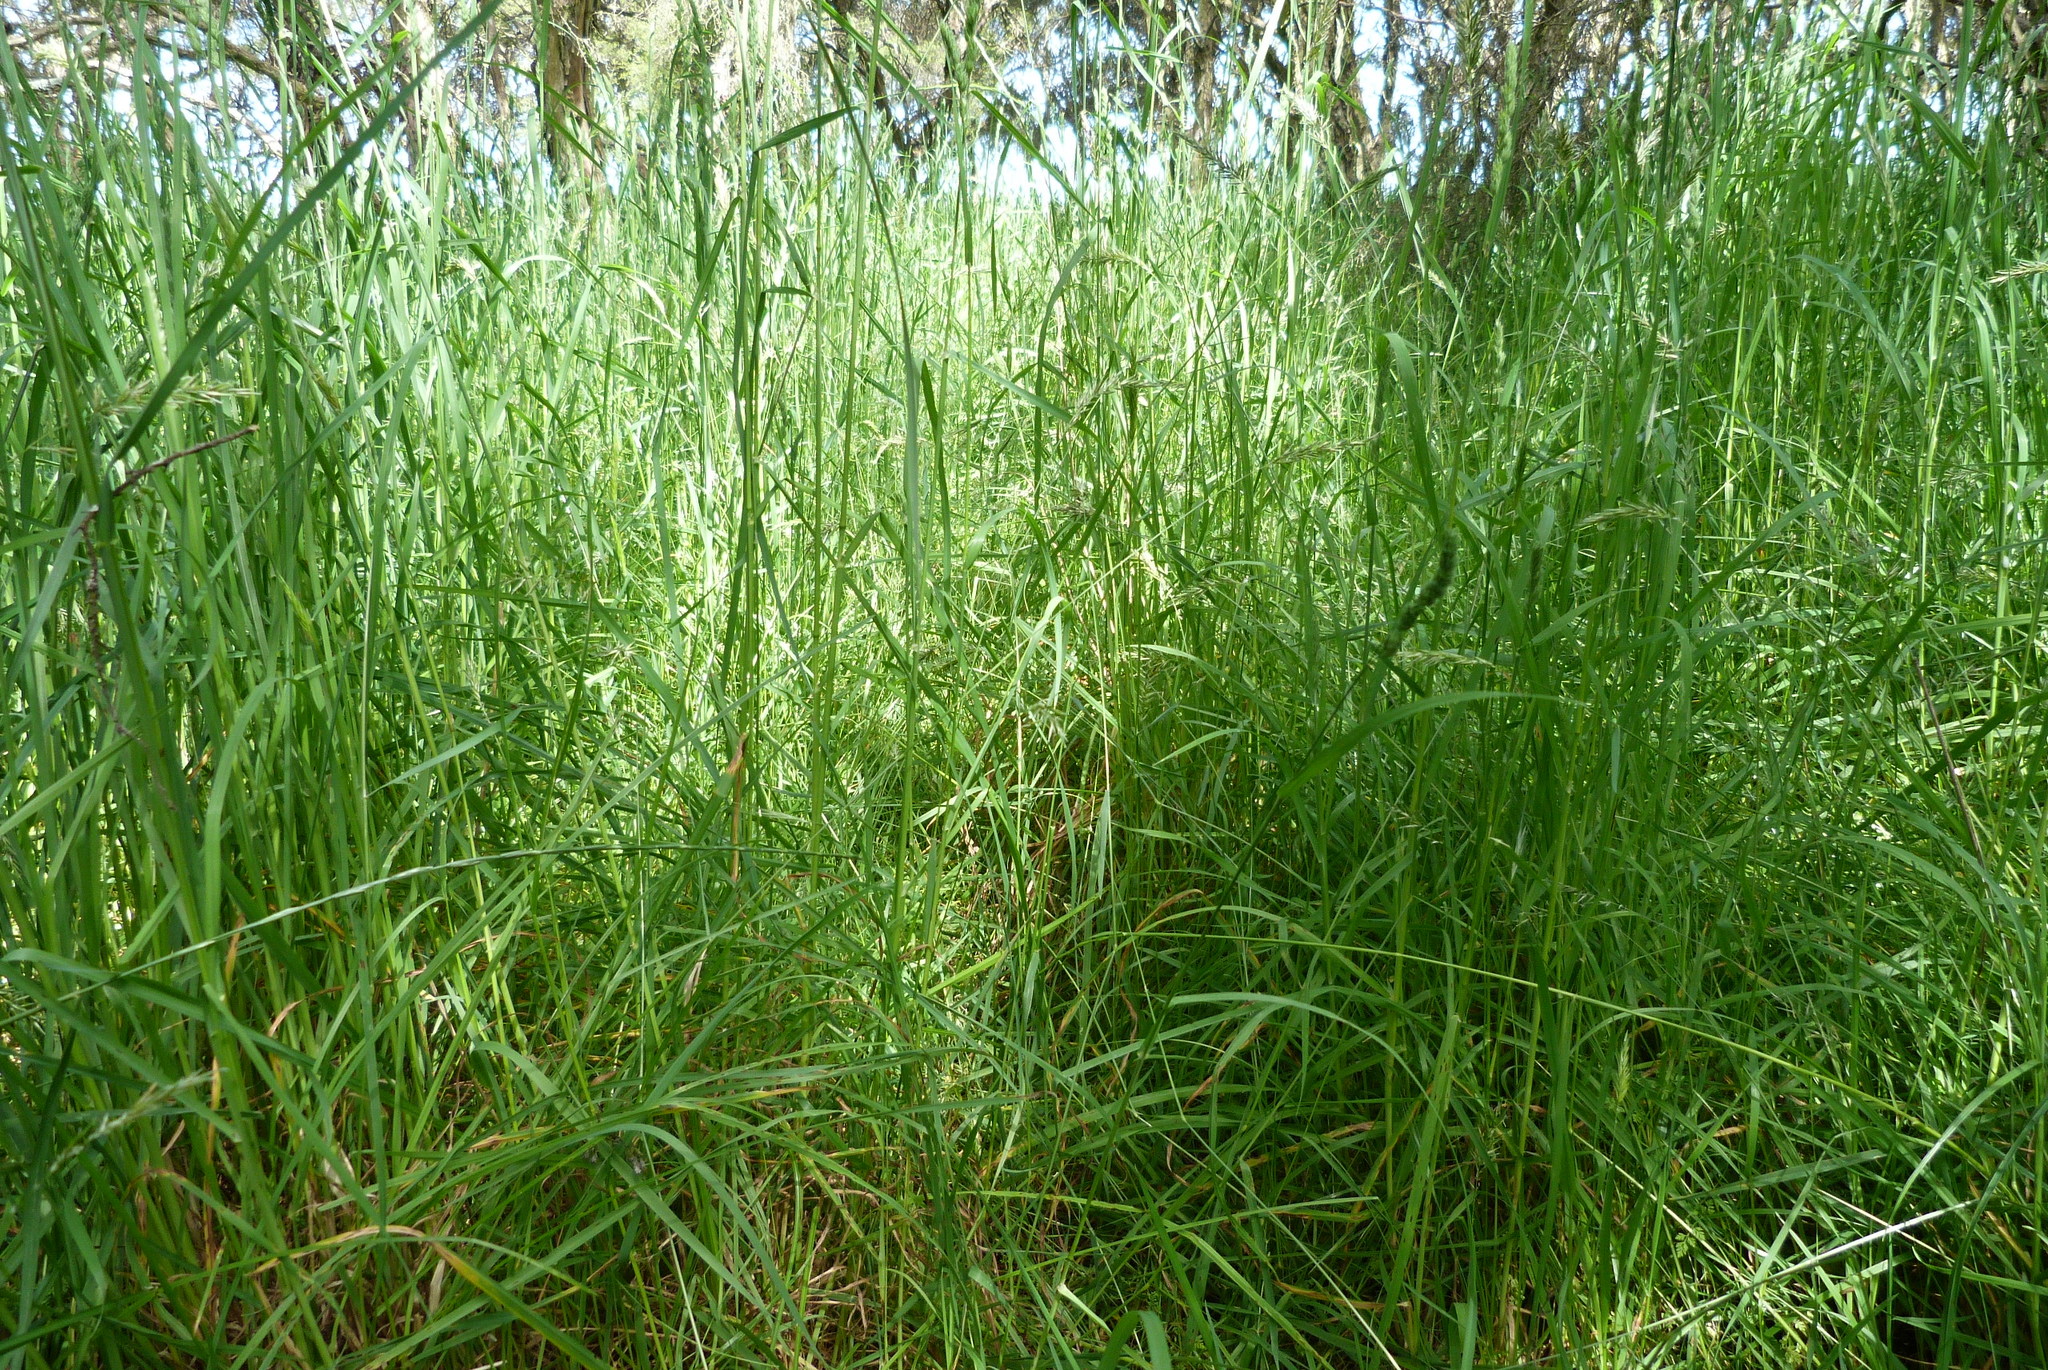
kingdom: Plantae
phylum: Tracheophyta
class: Liliopsida
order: Poales
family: Poaceae
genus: Dactylis
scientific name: Dactylis glomerata
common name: Orchardgrass
